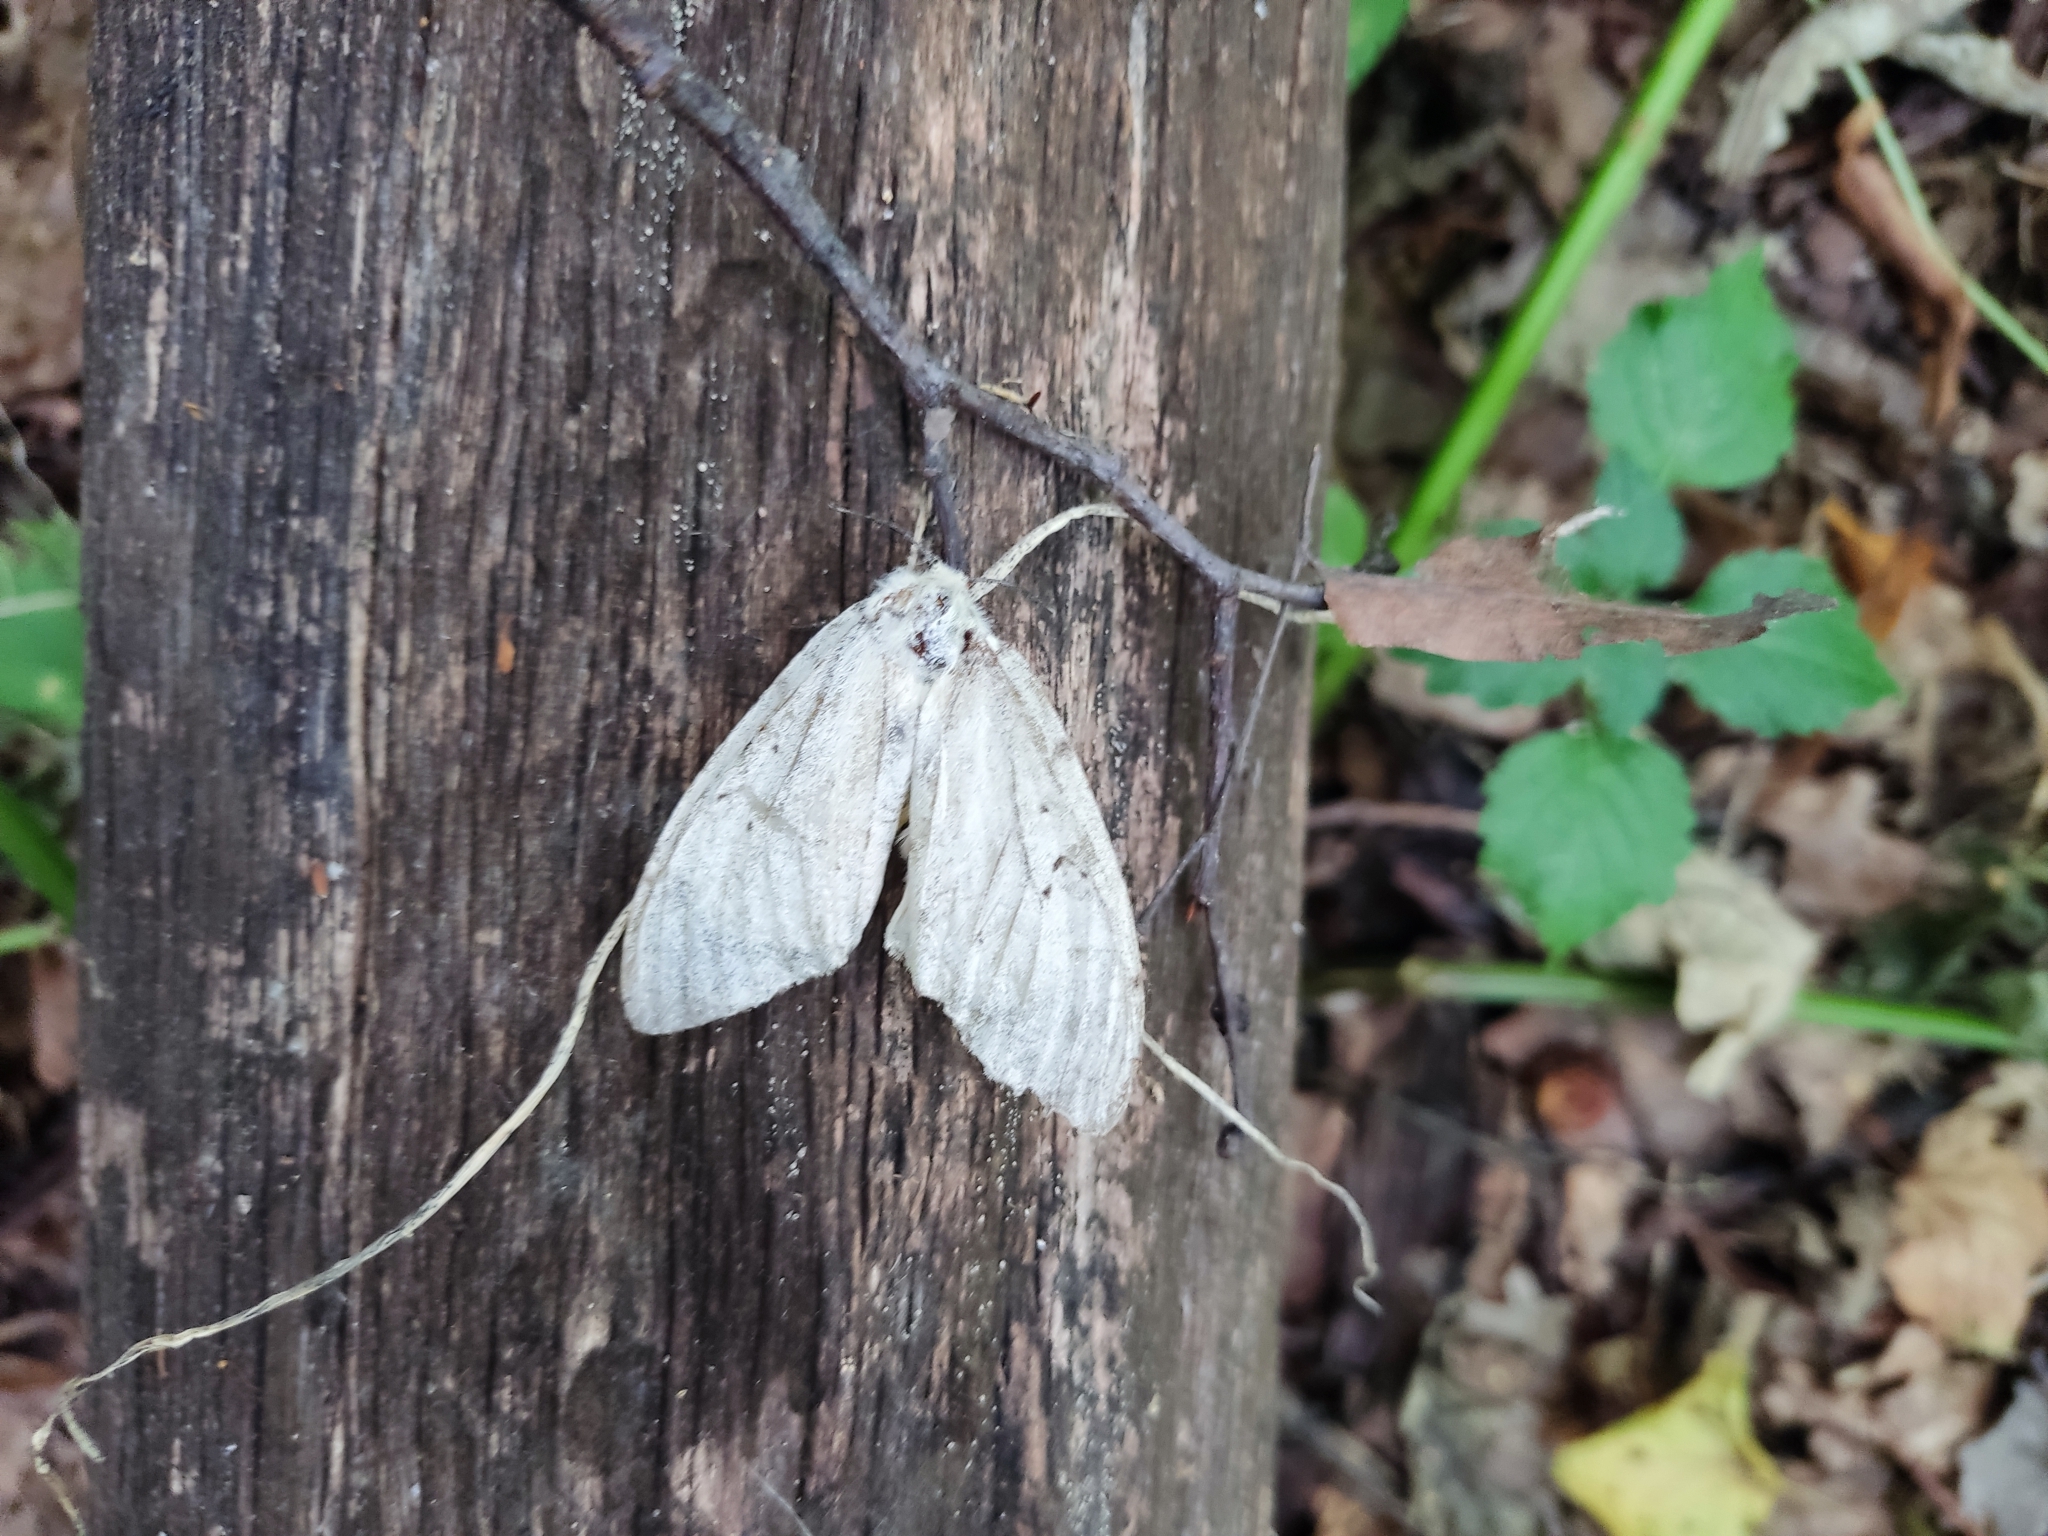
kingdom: Animalia
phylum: Arthropoda
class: Insecta
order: Lepidoptera
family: Erebidae
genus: Lymantria
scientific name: Lymantria dispar
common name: Gypsy moth
